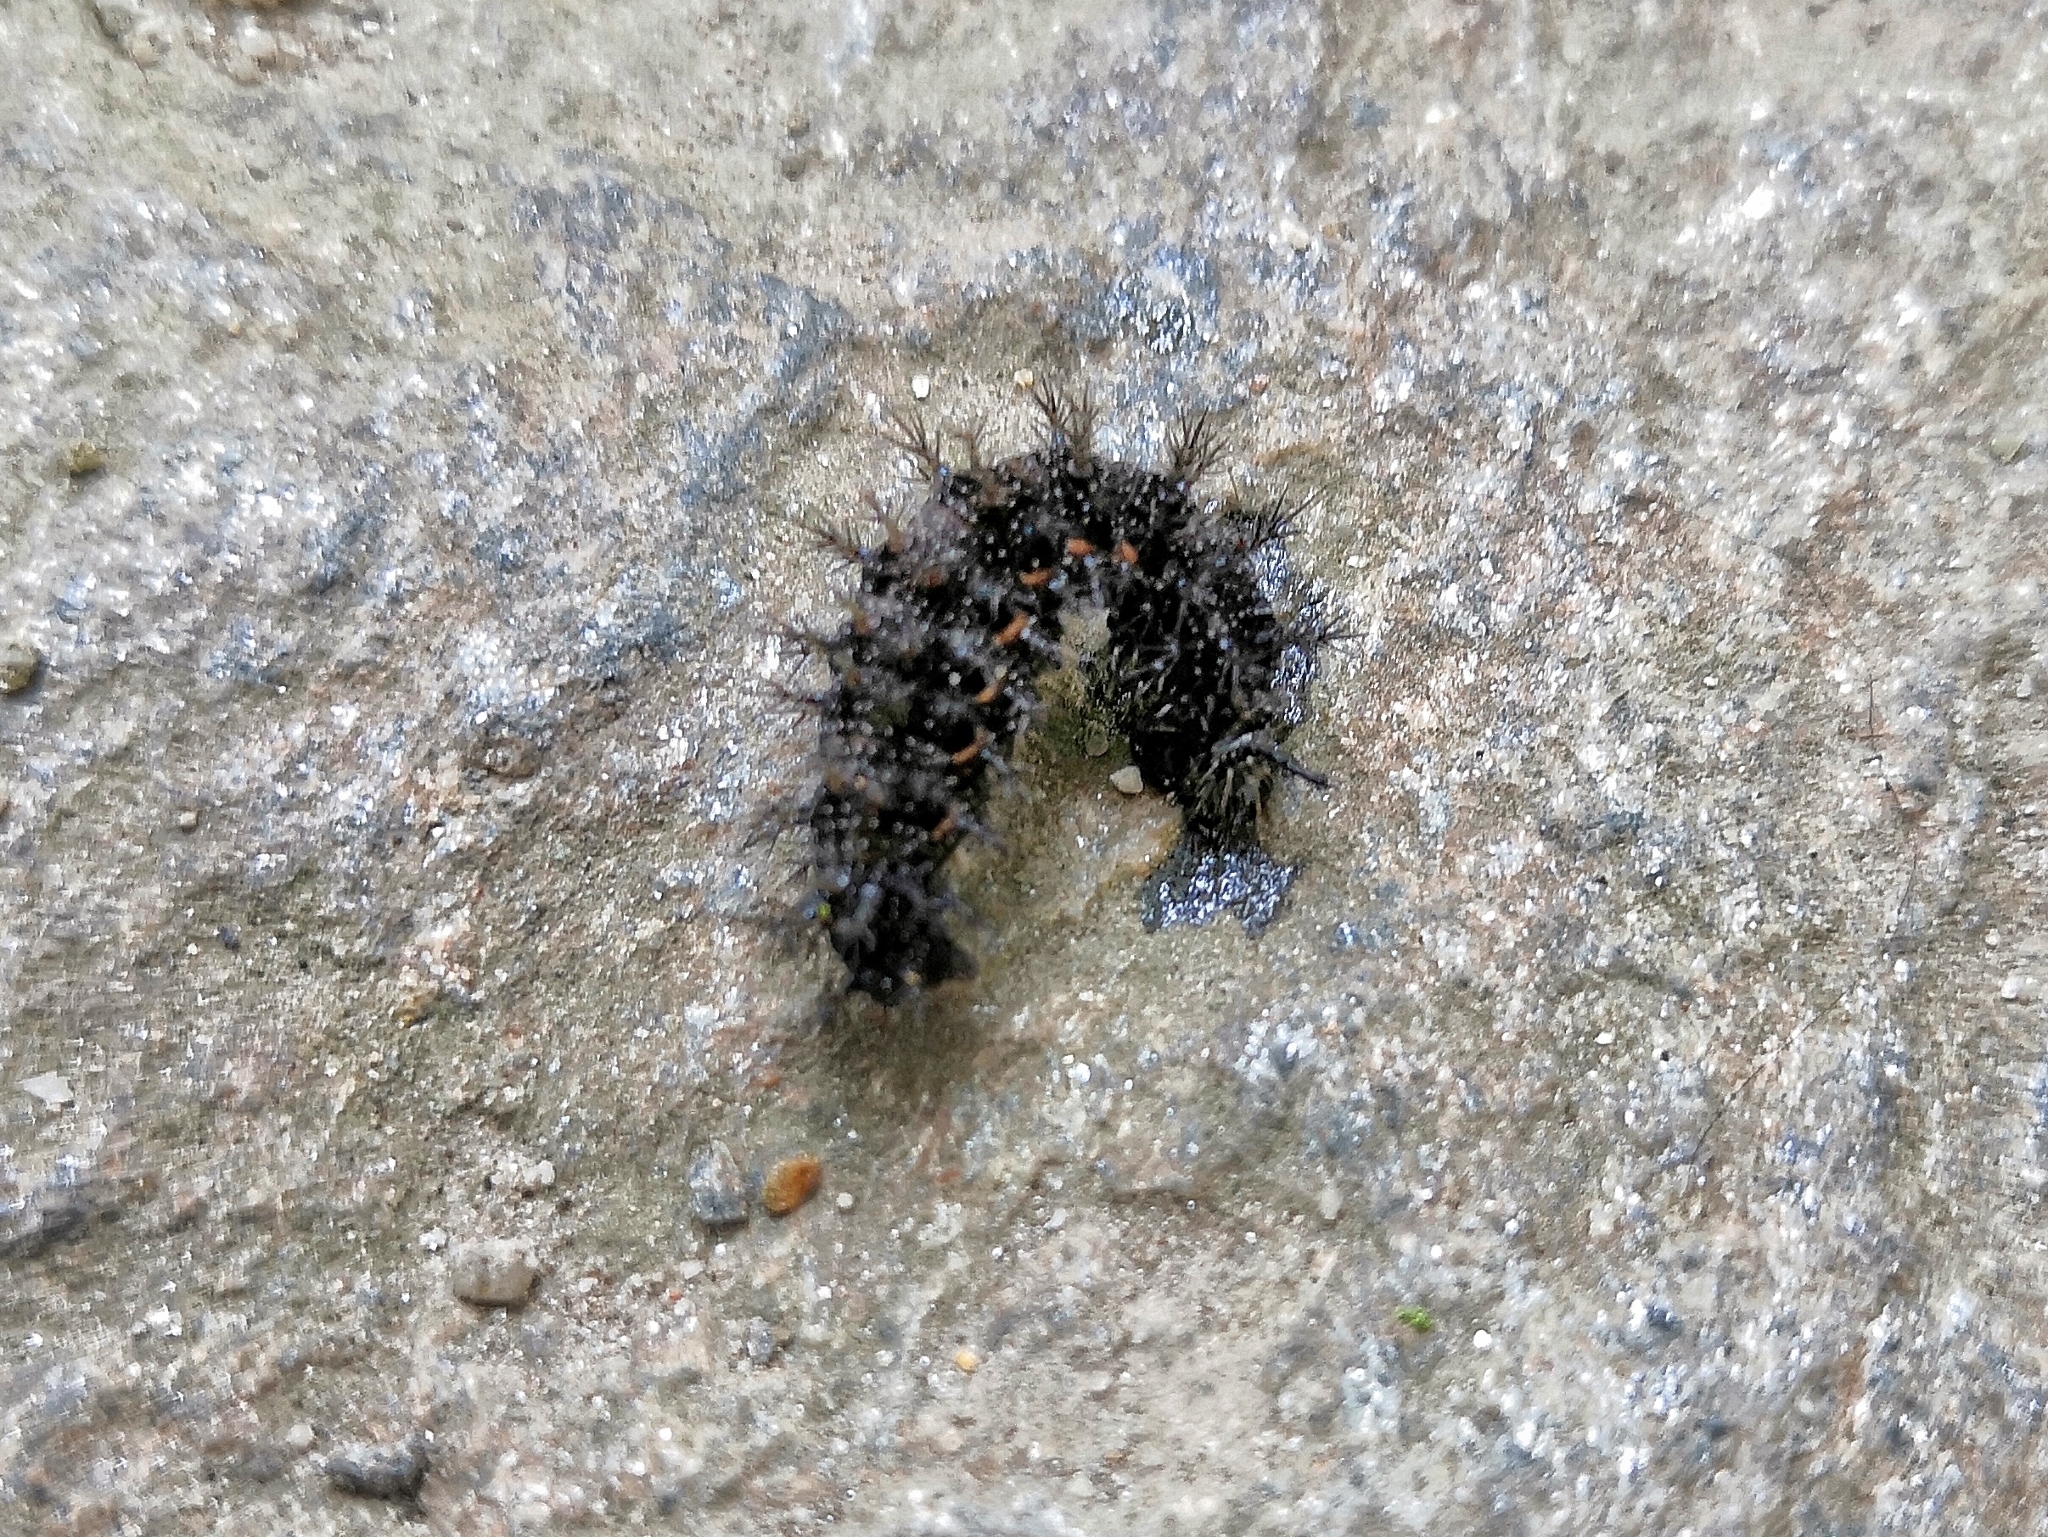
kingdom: Animalia
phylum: Arthropoda
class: Insecta
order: Lepidoptera
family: Nymphalidae
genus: Araschnia
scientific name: Araschnia levana
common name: Map butterfly
